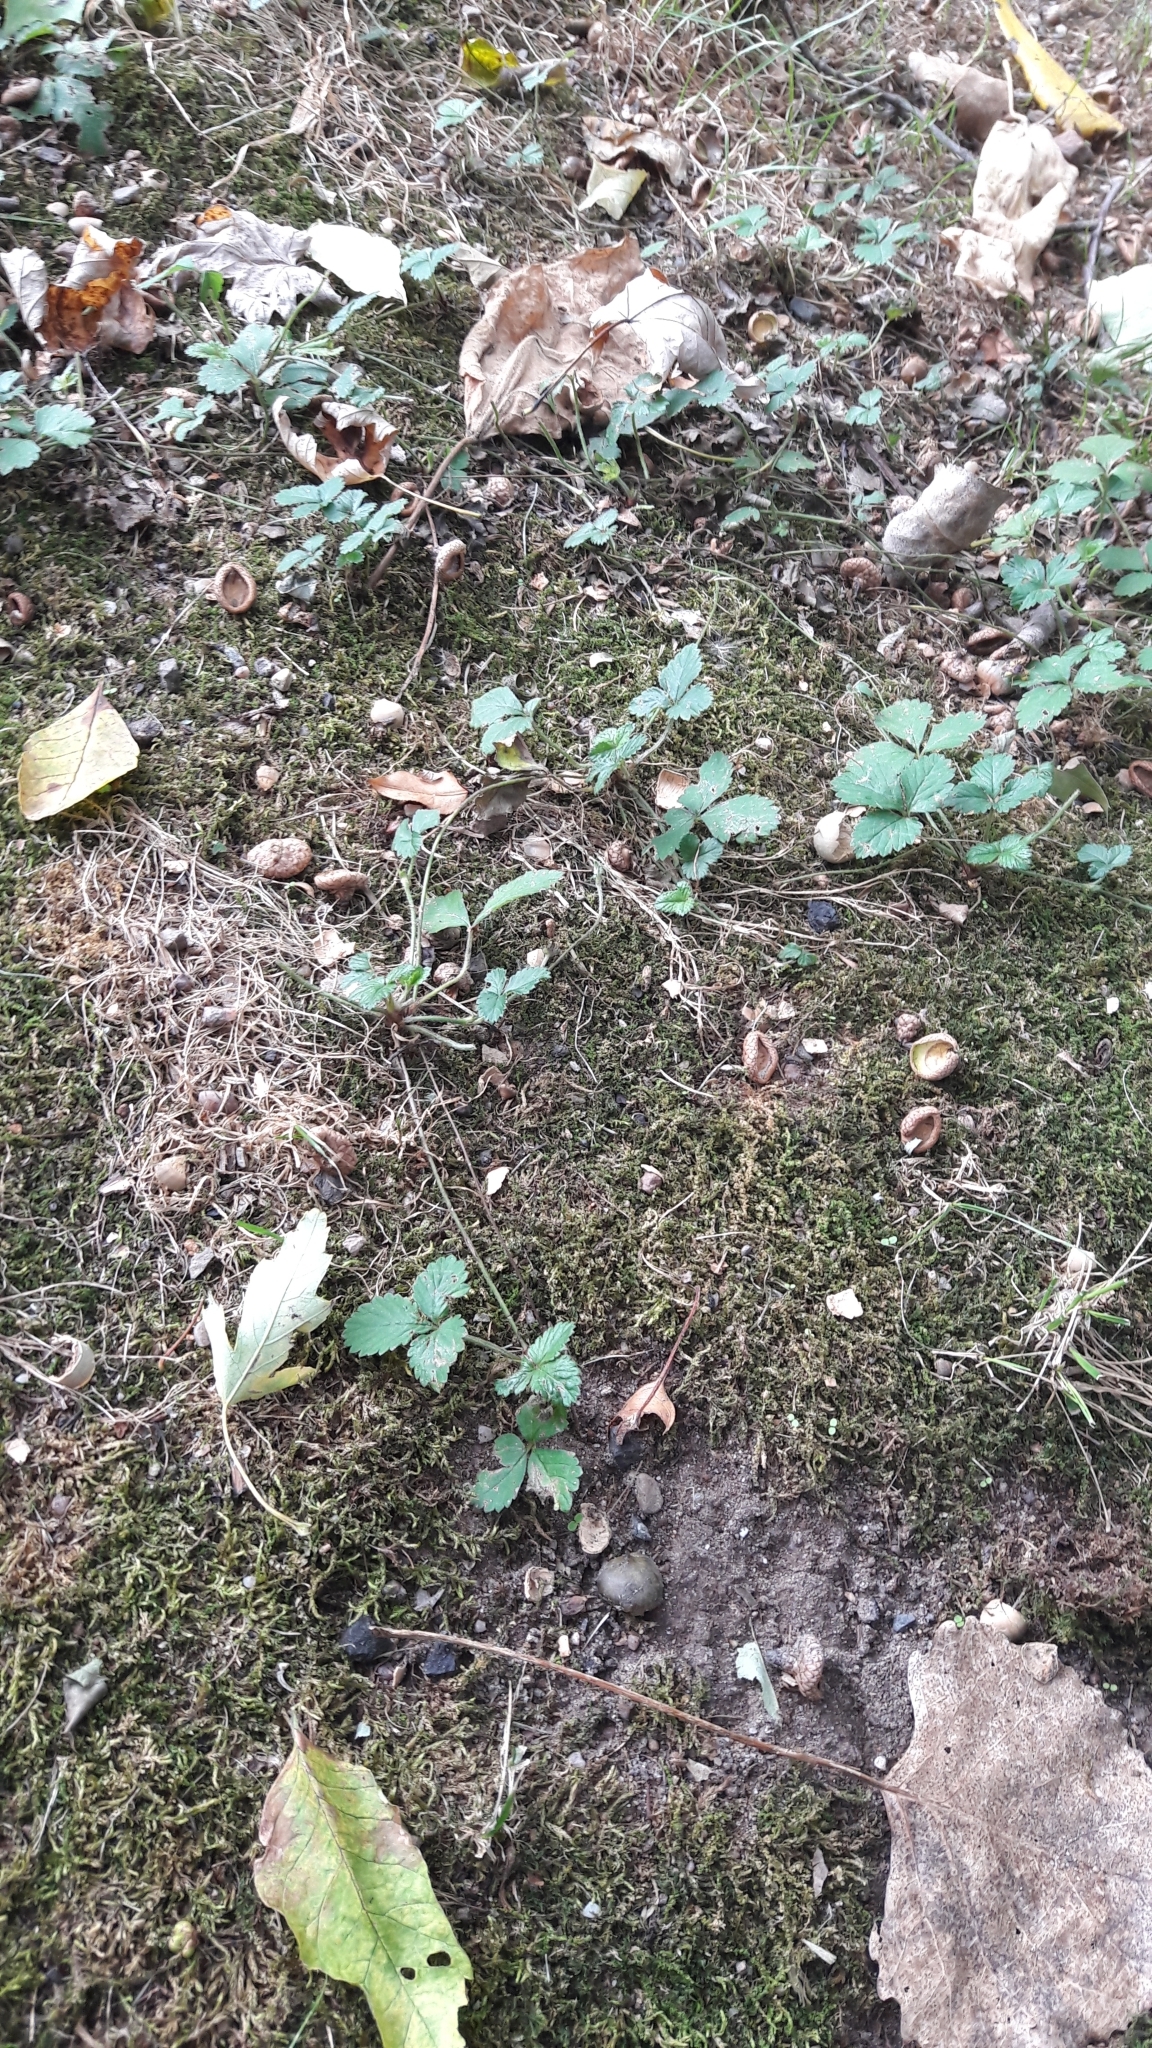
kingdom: Plantae
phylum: Tracheophyta
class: Magnoliopsida
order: Rosales
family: Rosaceae
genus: Potentilla
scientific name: Potentilla indica
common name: Yellow-flowered strawberry
